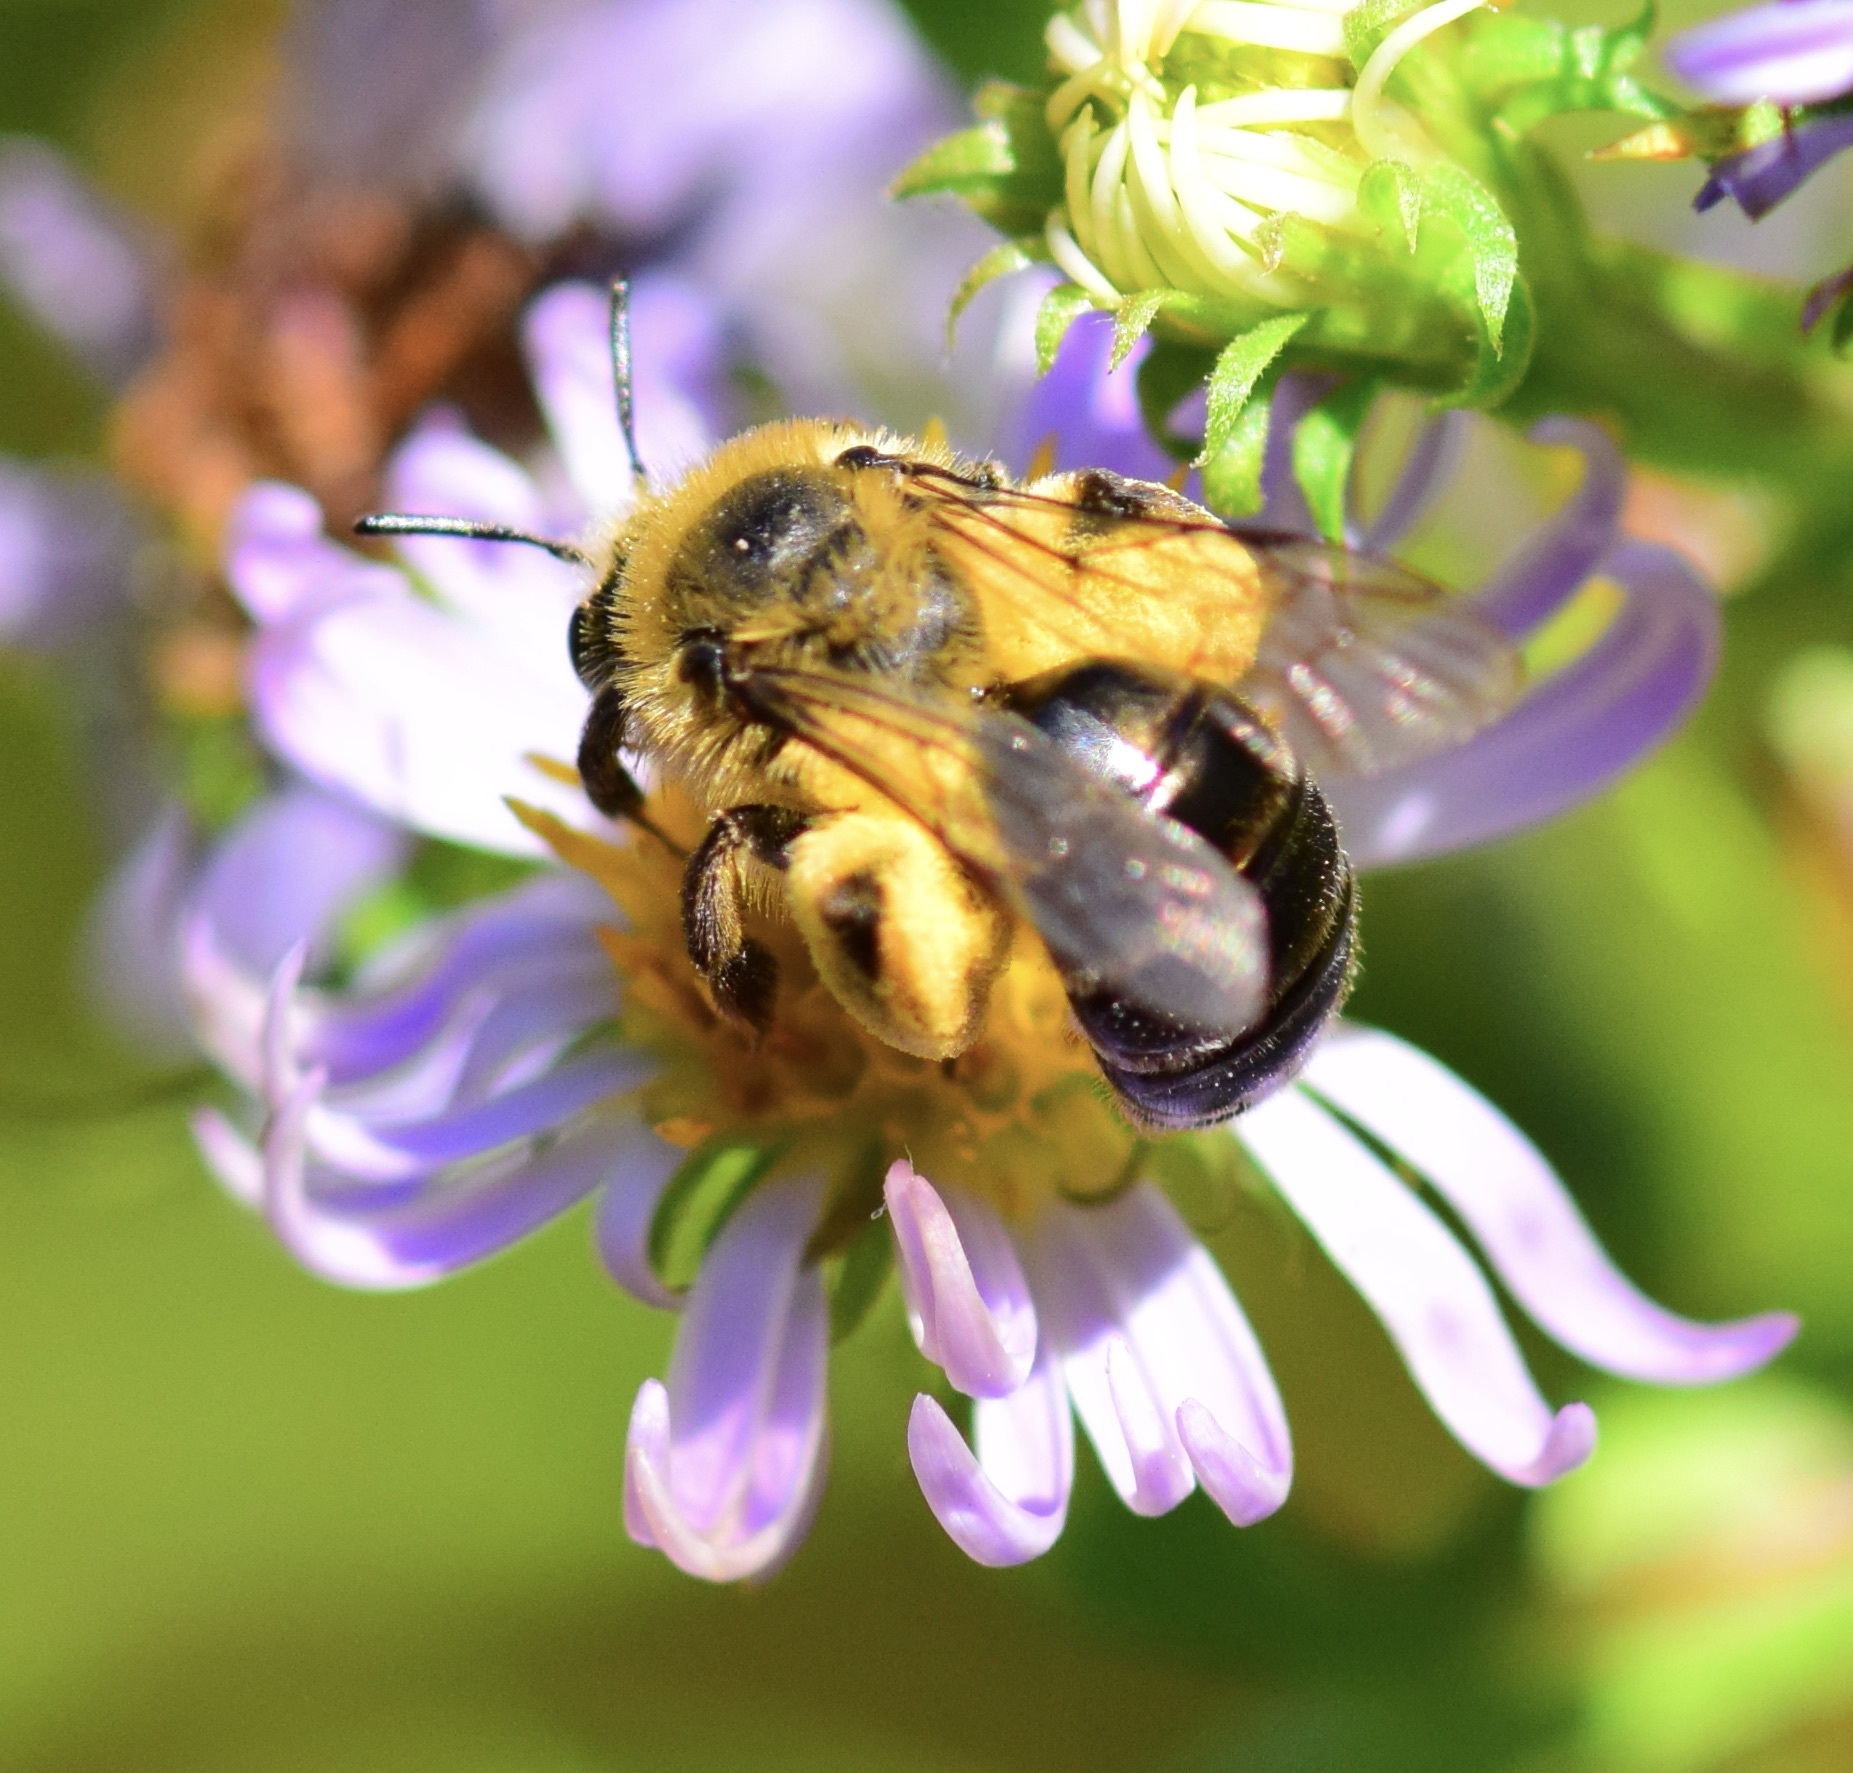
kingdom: Animalia
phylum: Arthropoda
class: Insecta
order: Hymenoptera
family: Andrenidae
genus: Andrena
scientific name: Andrena asteris
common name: Aster mining bee
